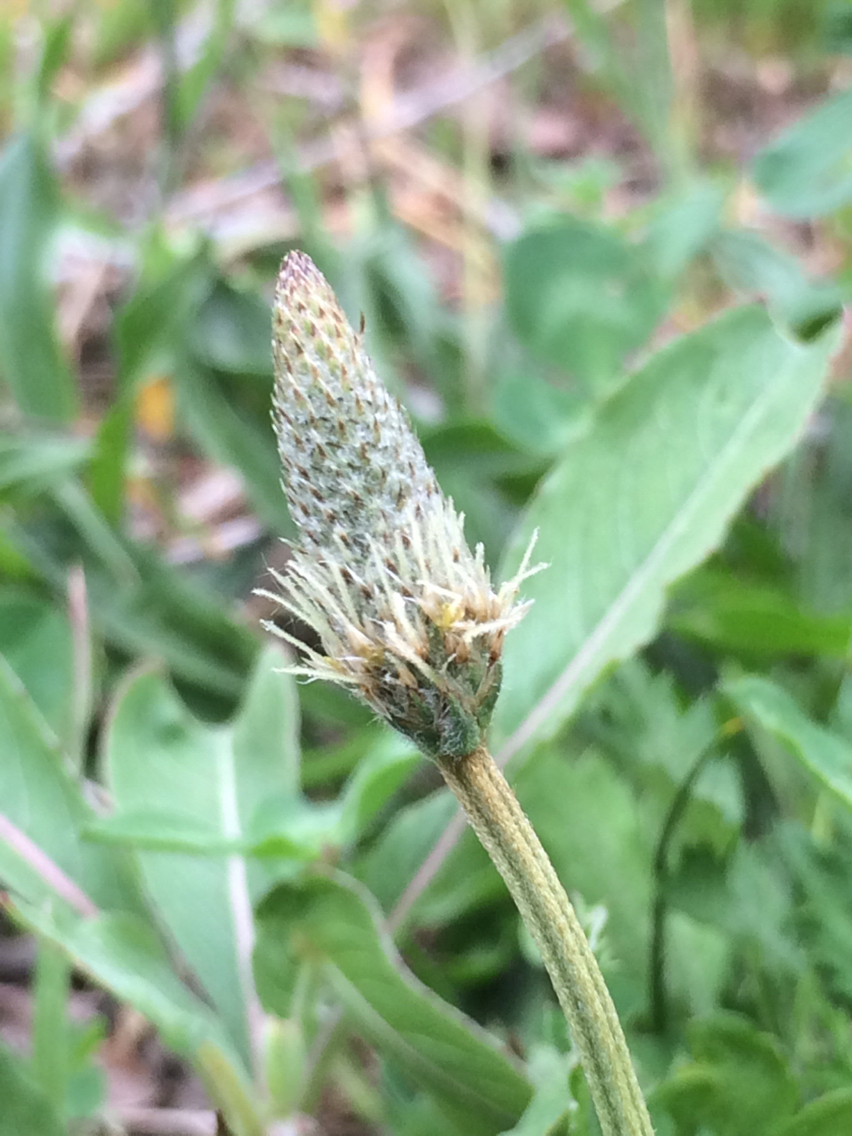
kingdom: Plantae
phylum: Tracheophyta
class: Magnoliopsida
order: Lamiales
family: Plantaginaceae
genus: Plantago
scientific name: Plantago lanceolata
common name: Ribwort plantain
